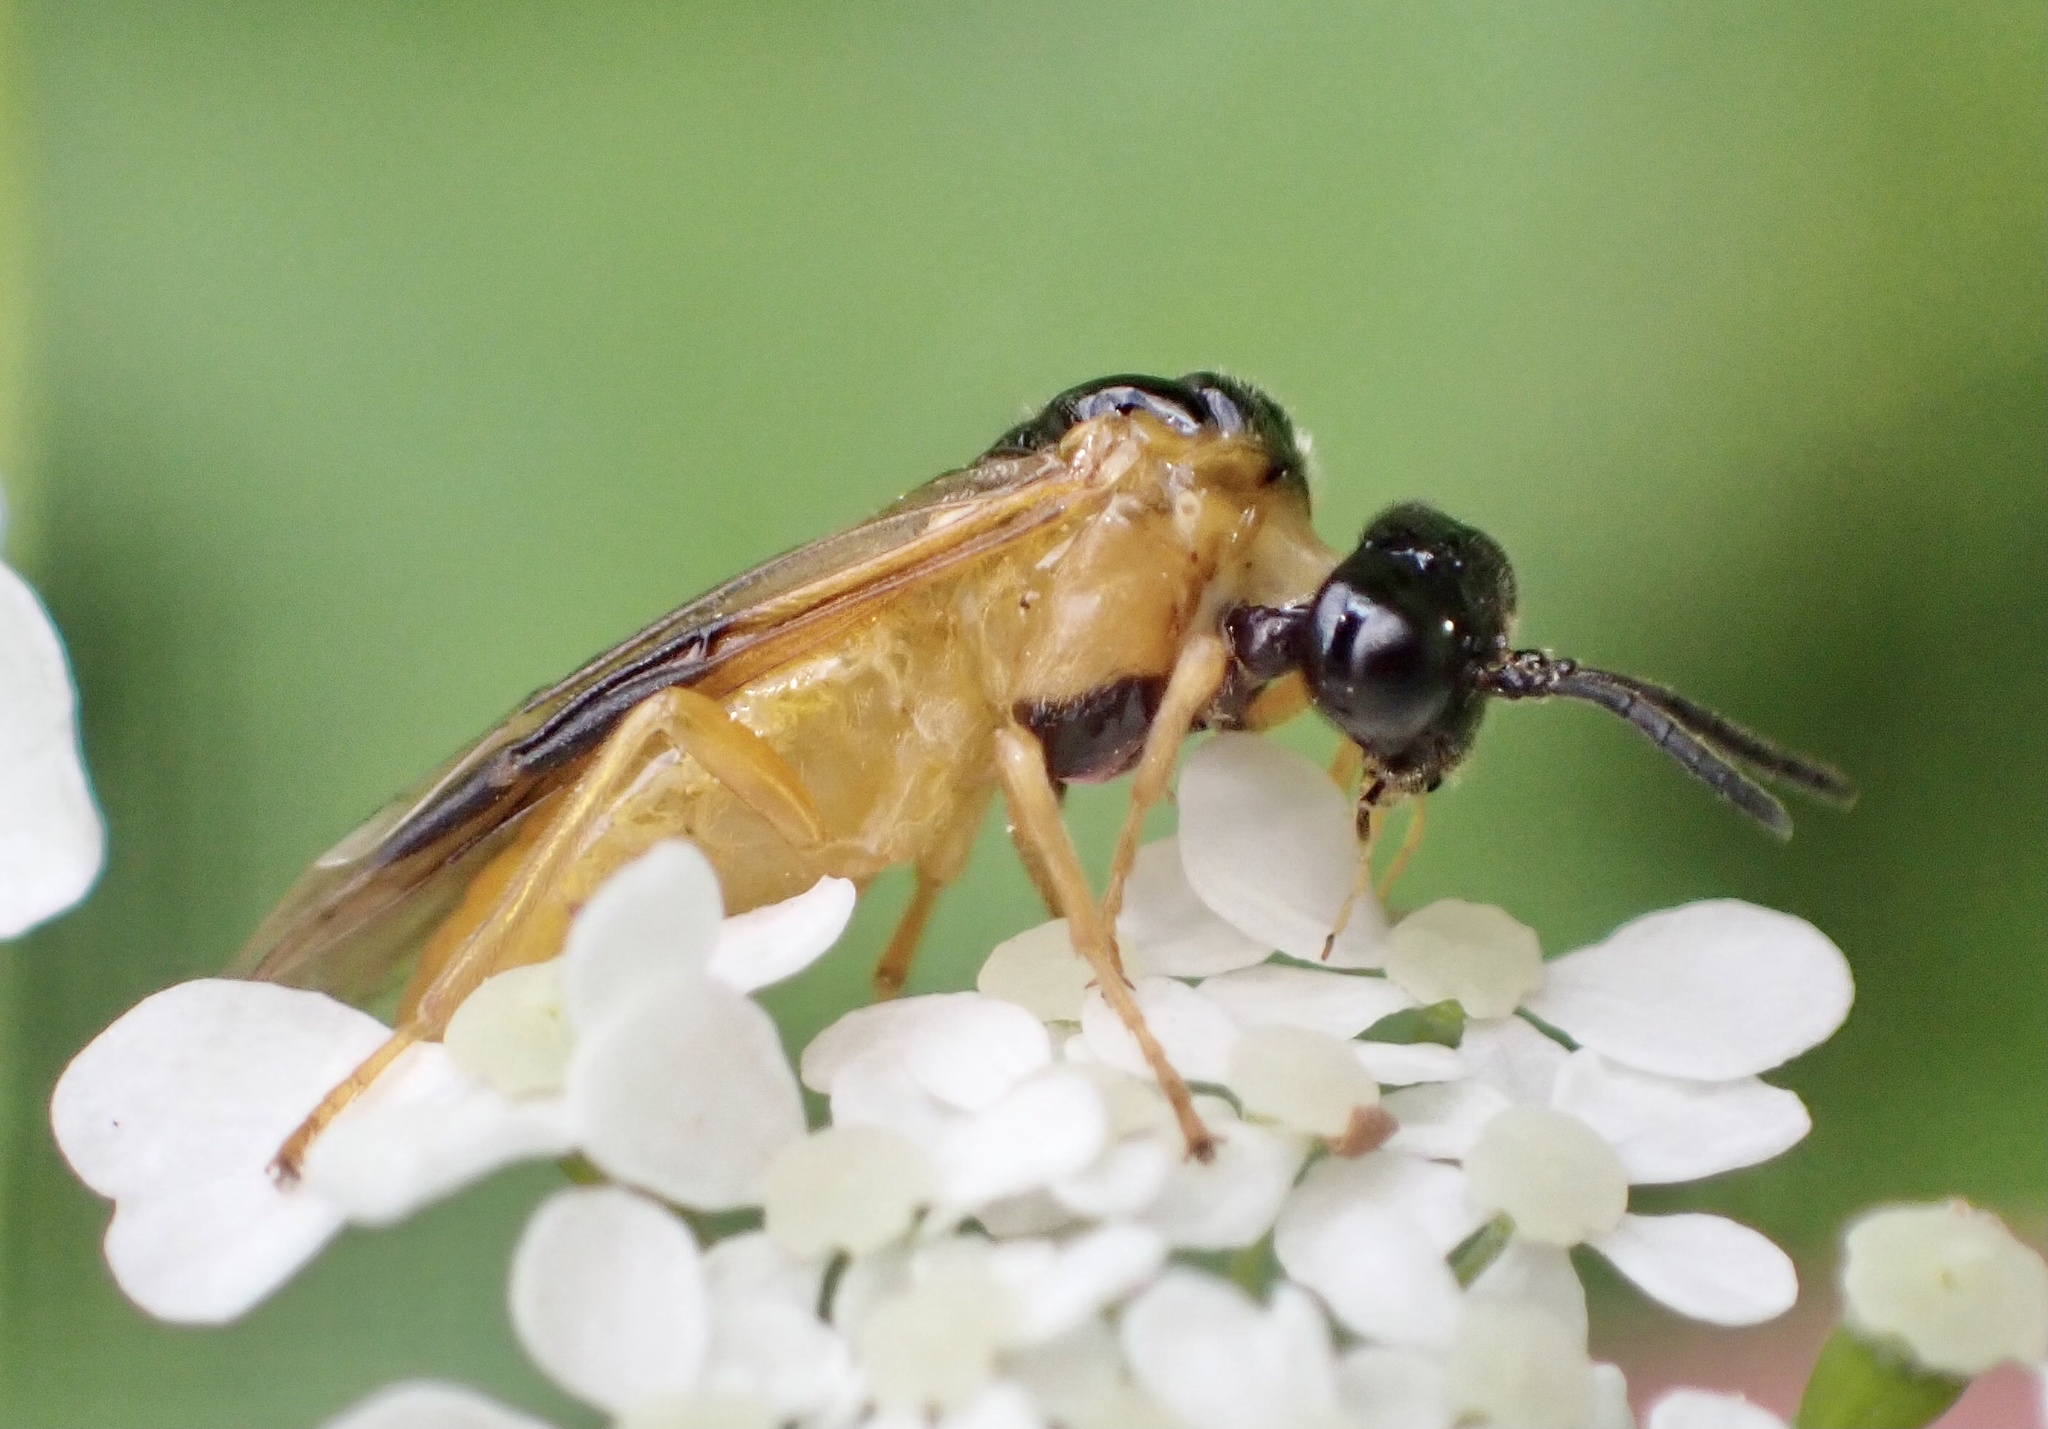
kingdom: Animalia
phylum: Arthropoda
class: Insecta
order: Hymenoptera
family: Tenthredinidae
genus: Selandria
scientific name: Selandria serva
